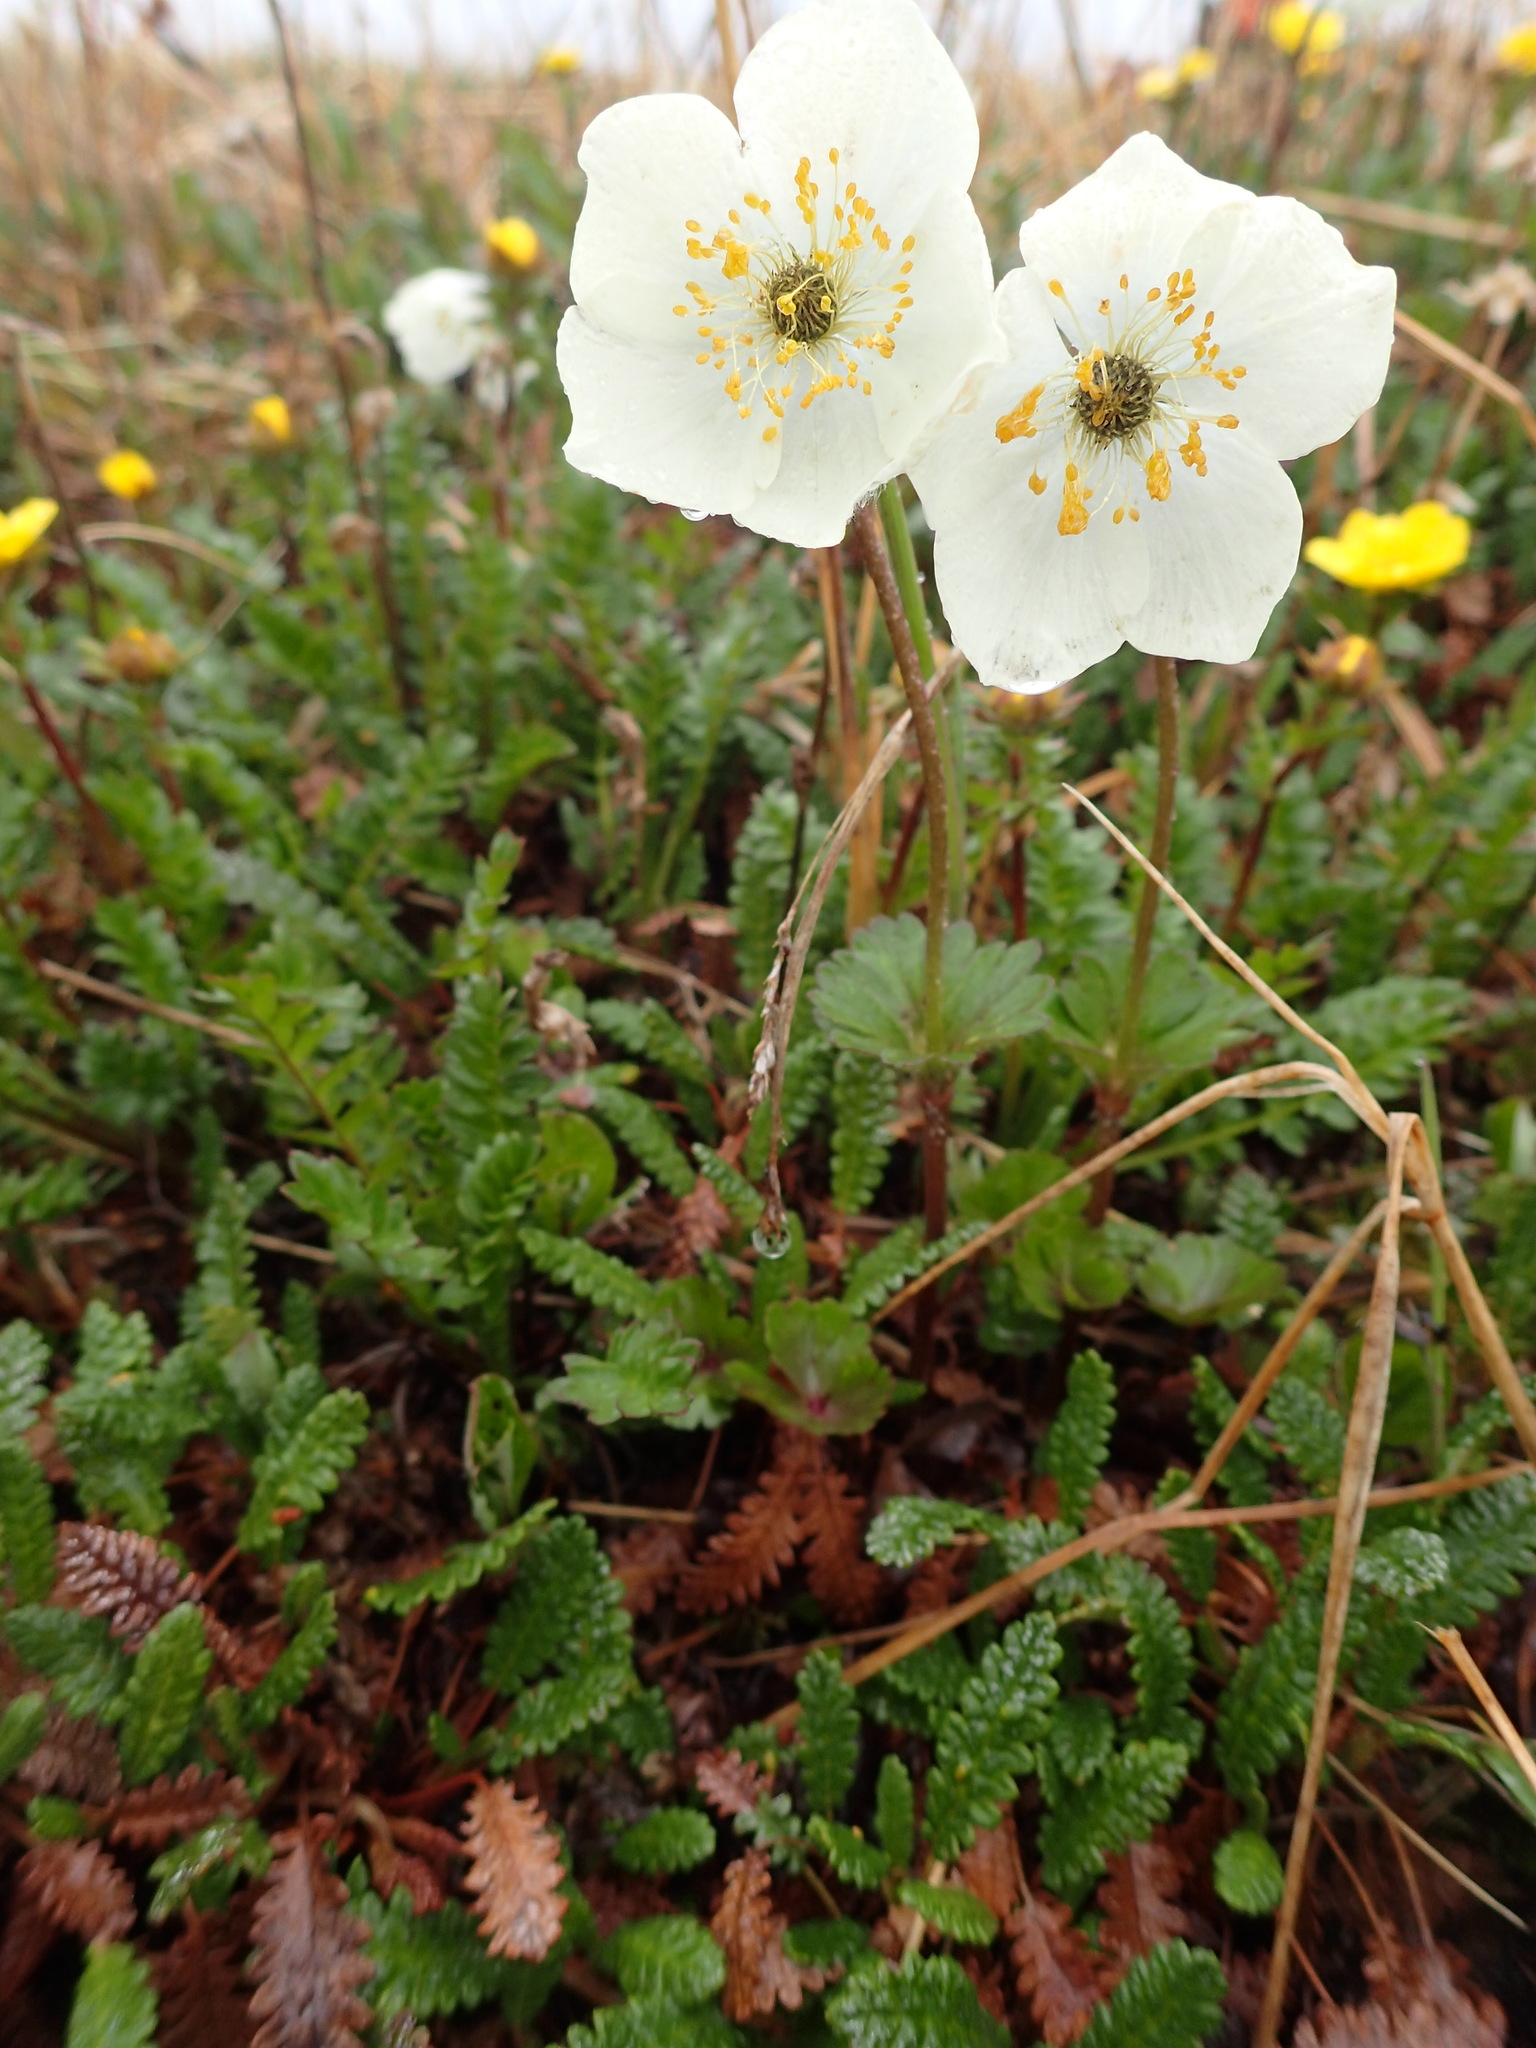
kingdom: Plantae
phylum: Tracheophyta
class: Magnoliopsida
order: Ranunculales
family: Ranunculaceae
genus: Anemone
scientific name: Anemone parviflora
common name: Northern anemone
